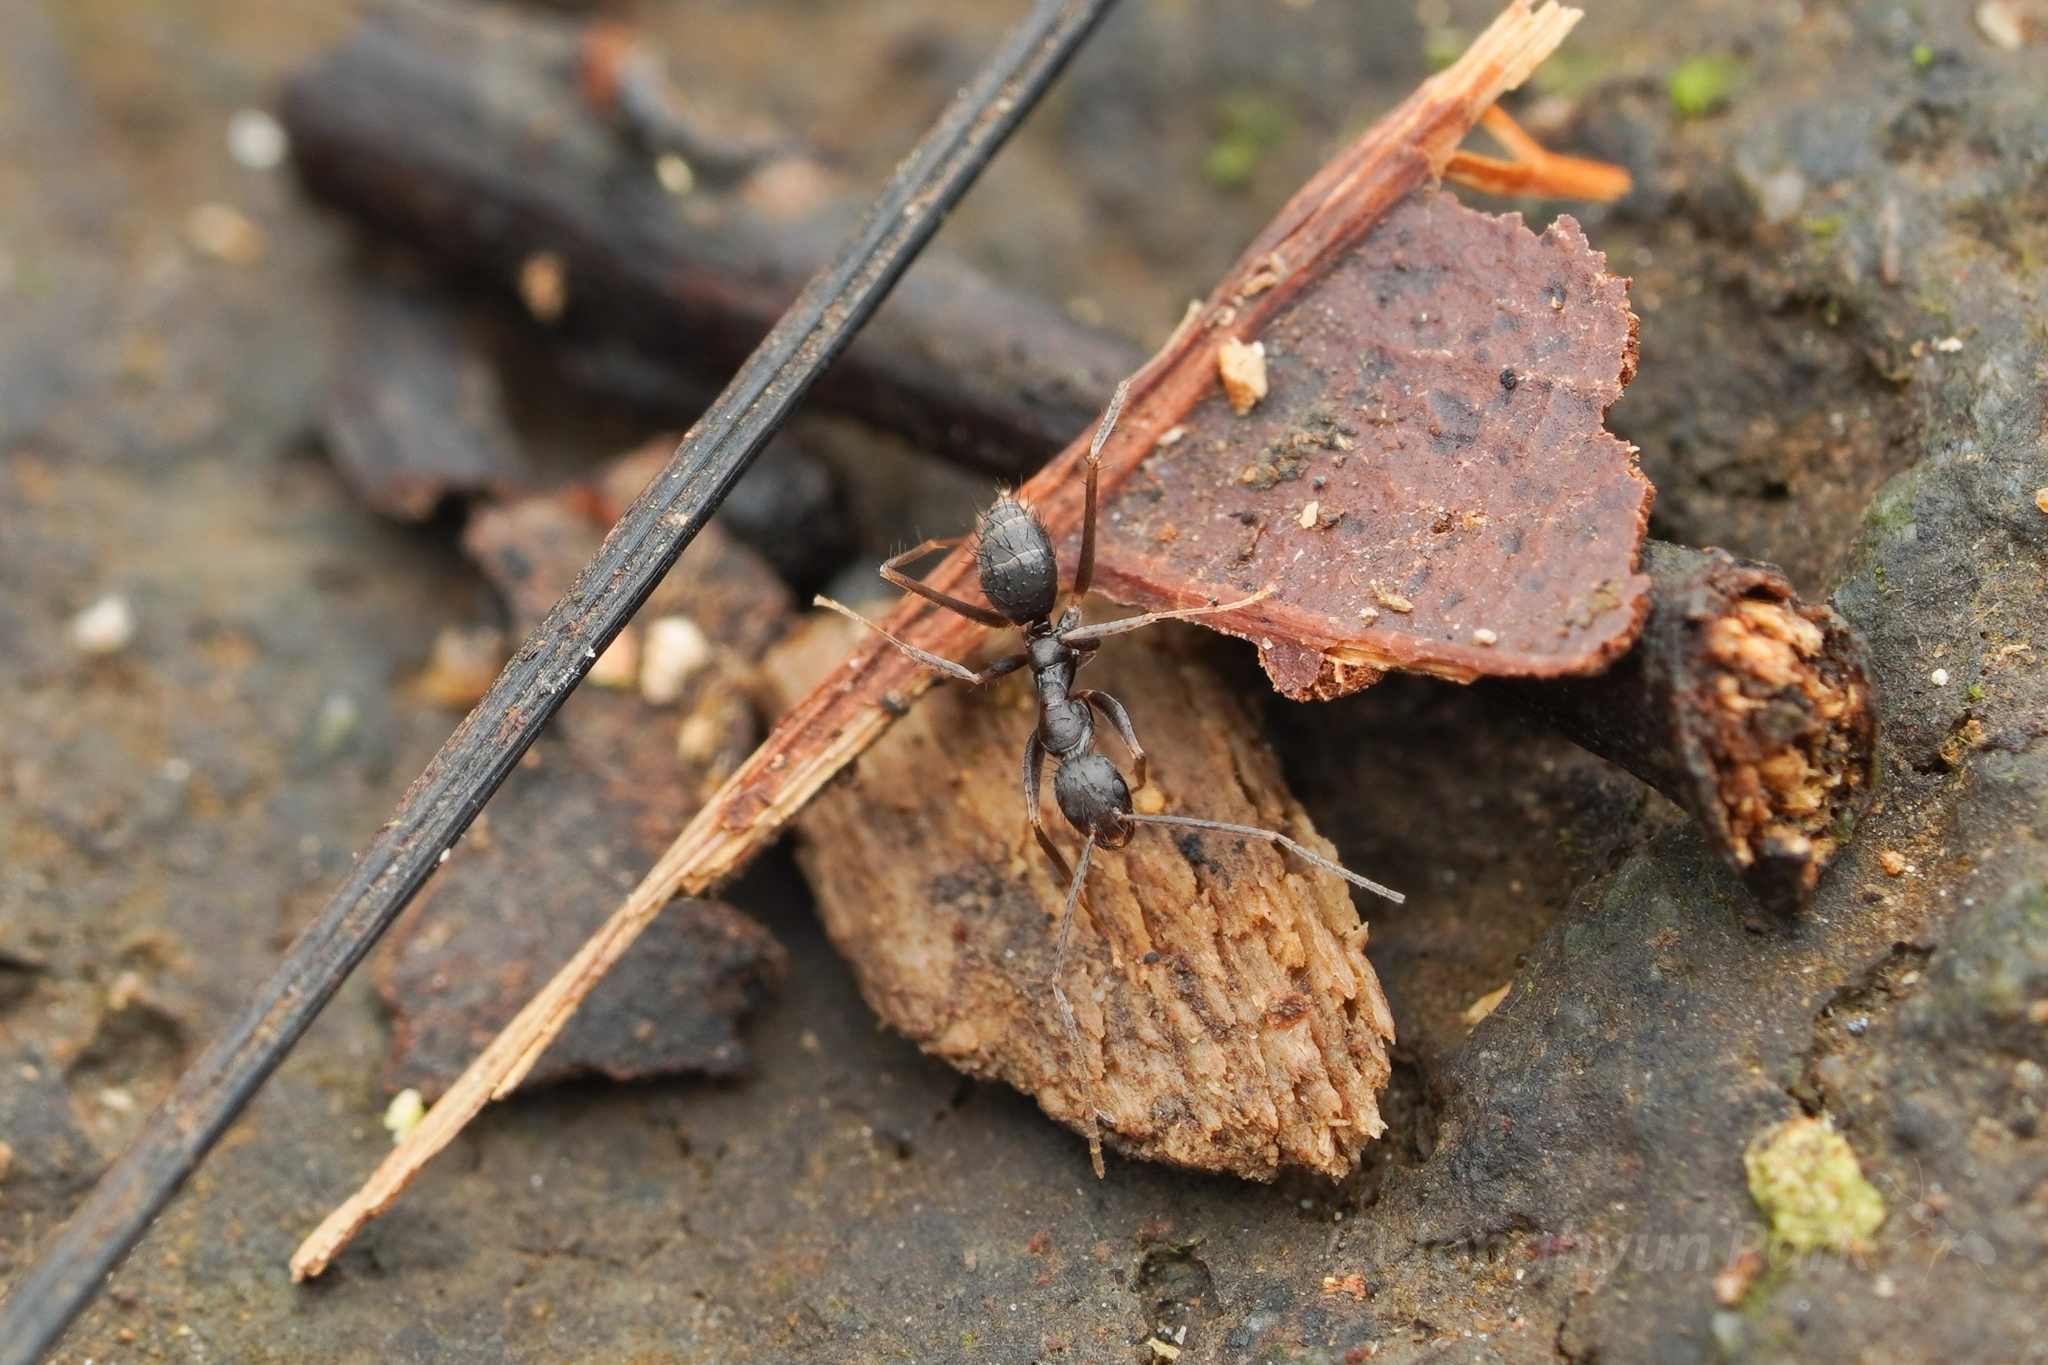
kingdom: Animalia
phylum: Arthropoda
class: Insecta
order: Hymenoptera
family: Formicidae
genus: Euprenolepis
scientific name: Euprenolepis procera
